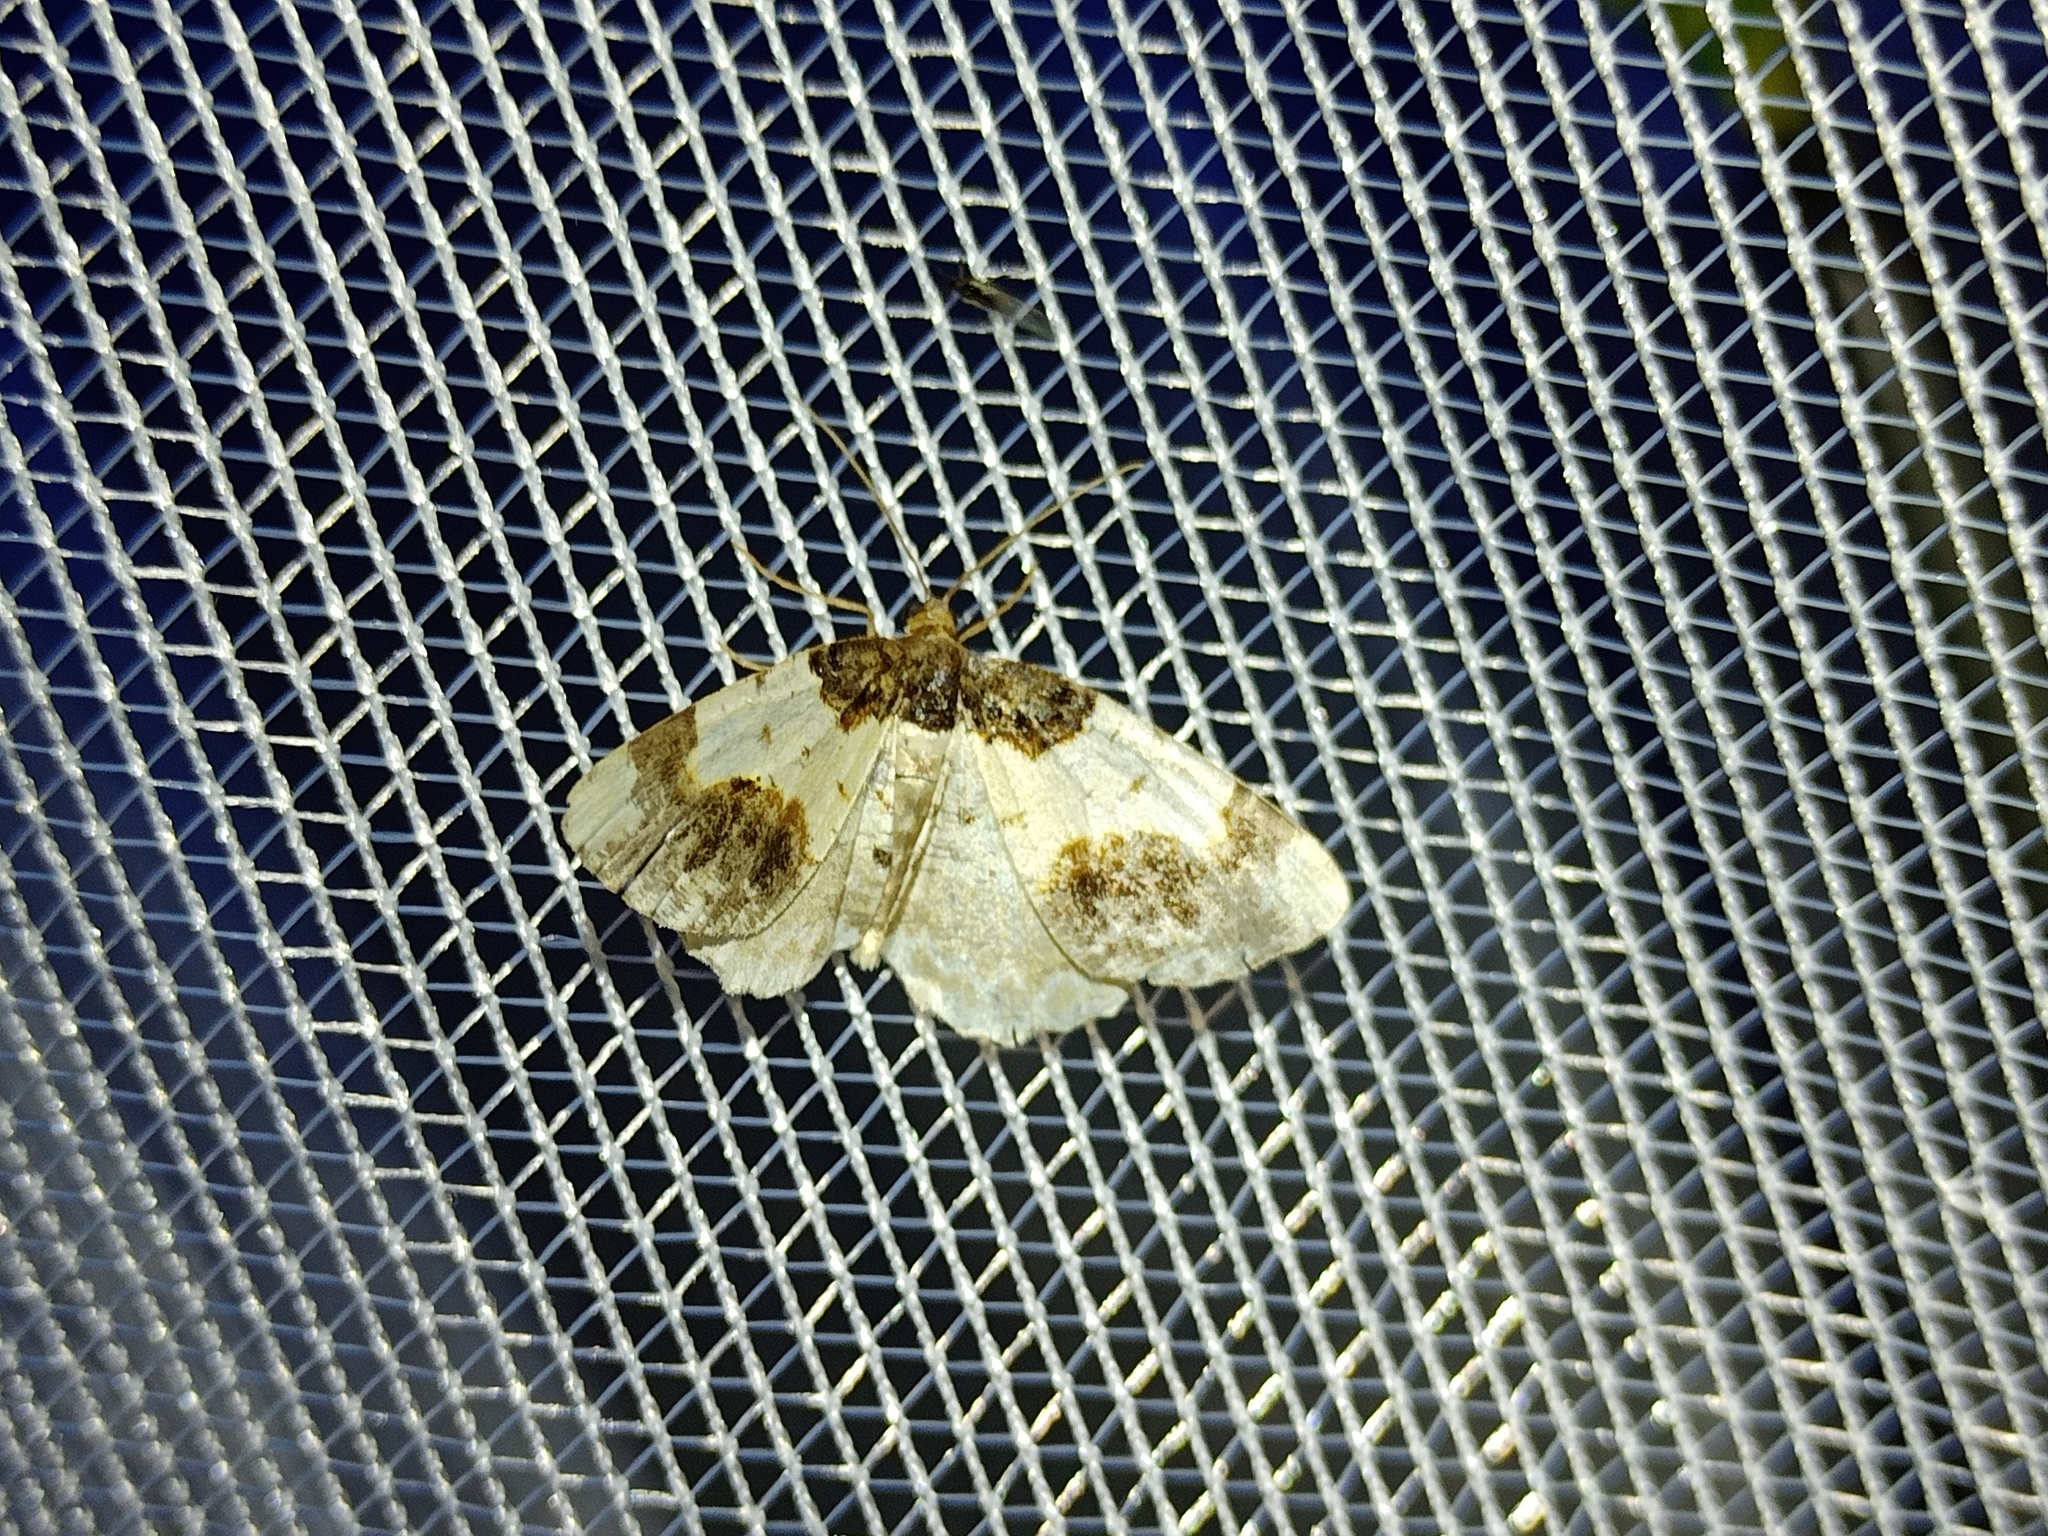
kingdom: Animalia
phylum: Arthropoda
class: Insecta
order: Lepidoptera
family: Geometridae
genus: Ligdia
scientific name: Ligdia adustata
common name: Scorched carpet
